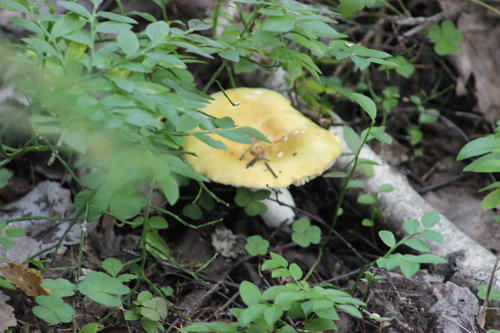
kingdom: Fungi
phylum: Basidiomycota
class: Agaricomycetes
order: Russulales
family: Russulaceae
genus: Russula
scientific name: Russula
